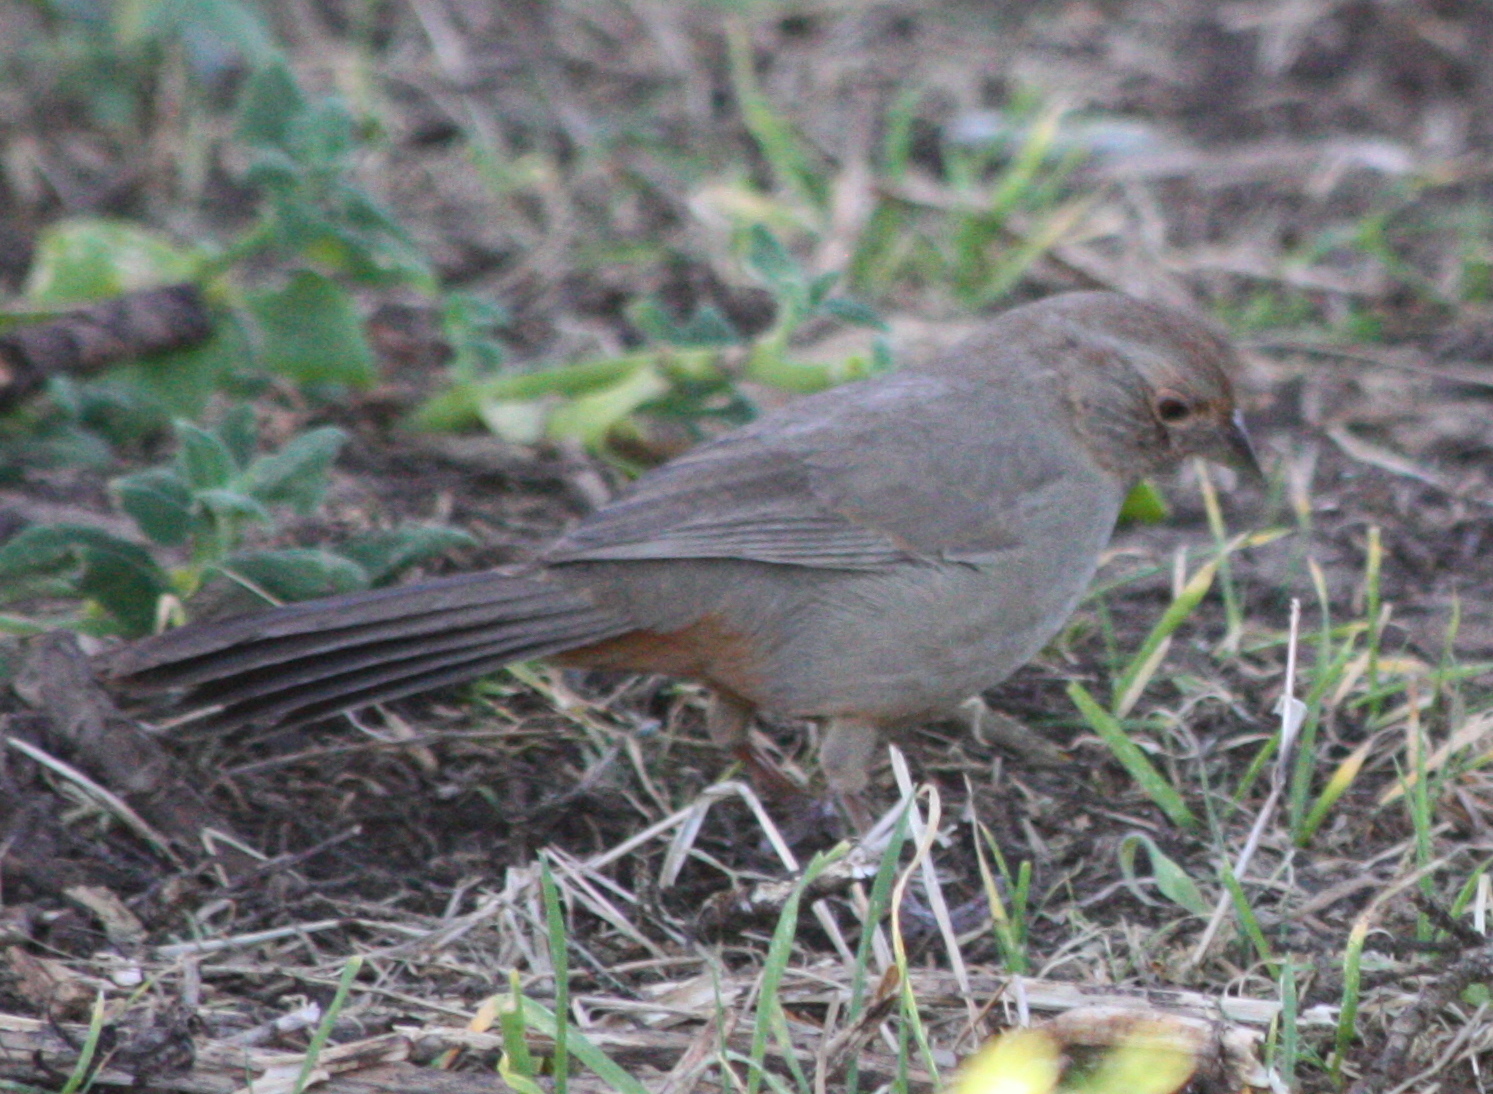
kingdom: Animalia
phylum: Chordata
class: Aves
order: Passeriformes
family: Passerellidae
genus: Melozone
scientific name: Melozone crissalis
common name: California towhee
